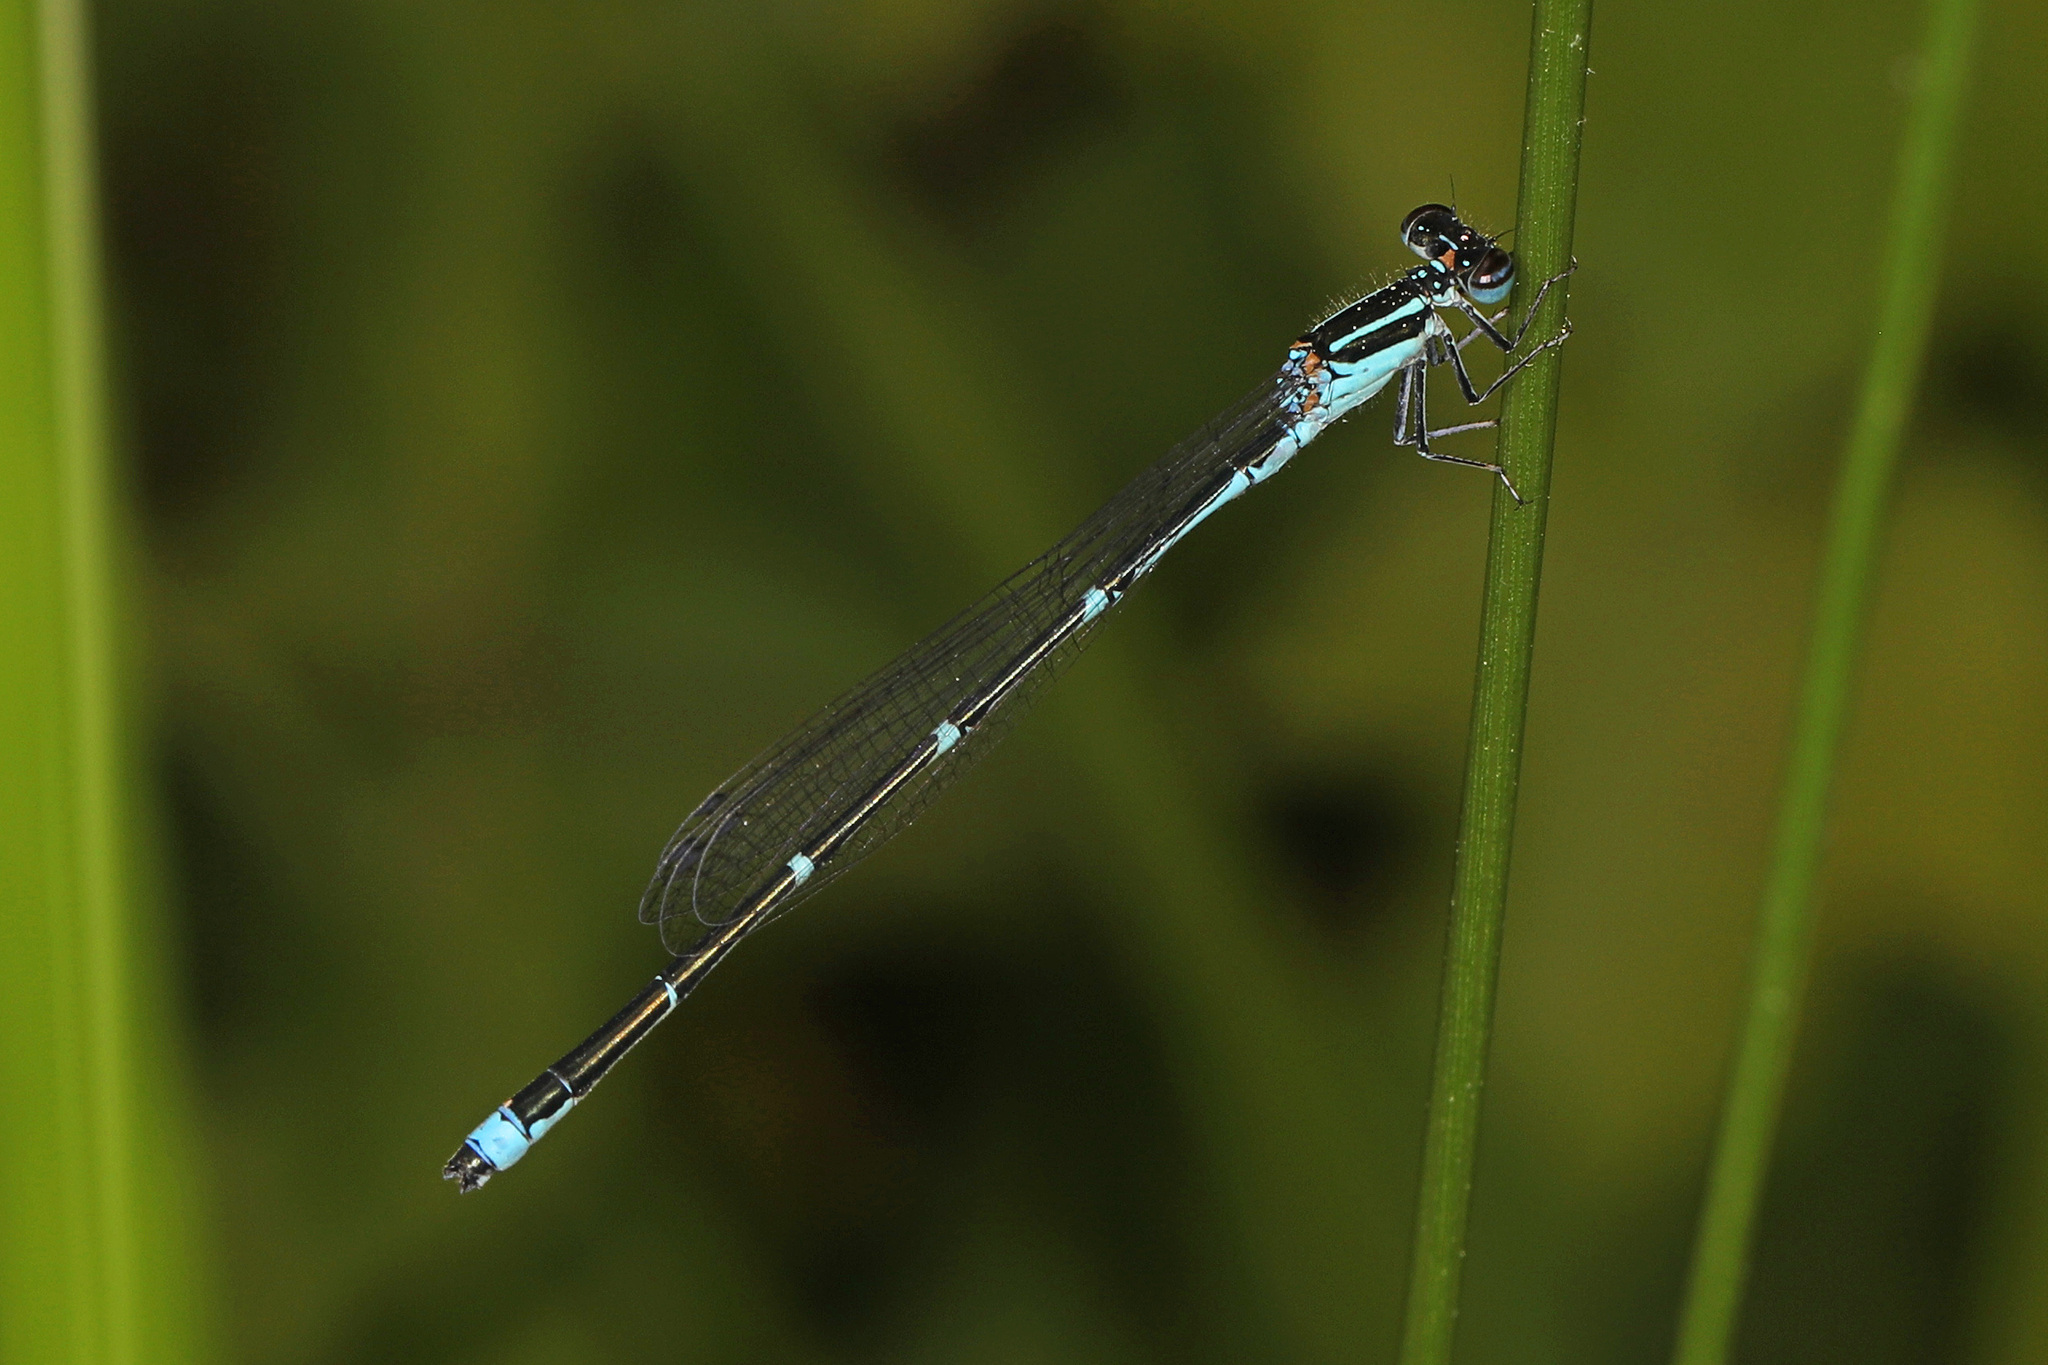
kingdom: Animalia
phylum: Arthropoda
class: Insecta
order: Odonata
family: Coenagrionidae
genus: Enallagma
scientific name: Enallagma exsulans
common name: Stream bluet
